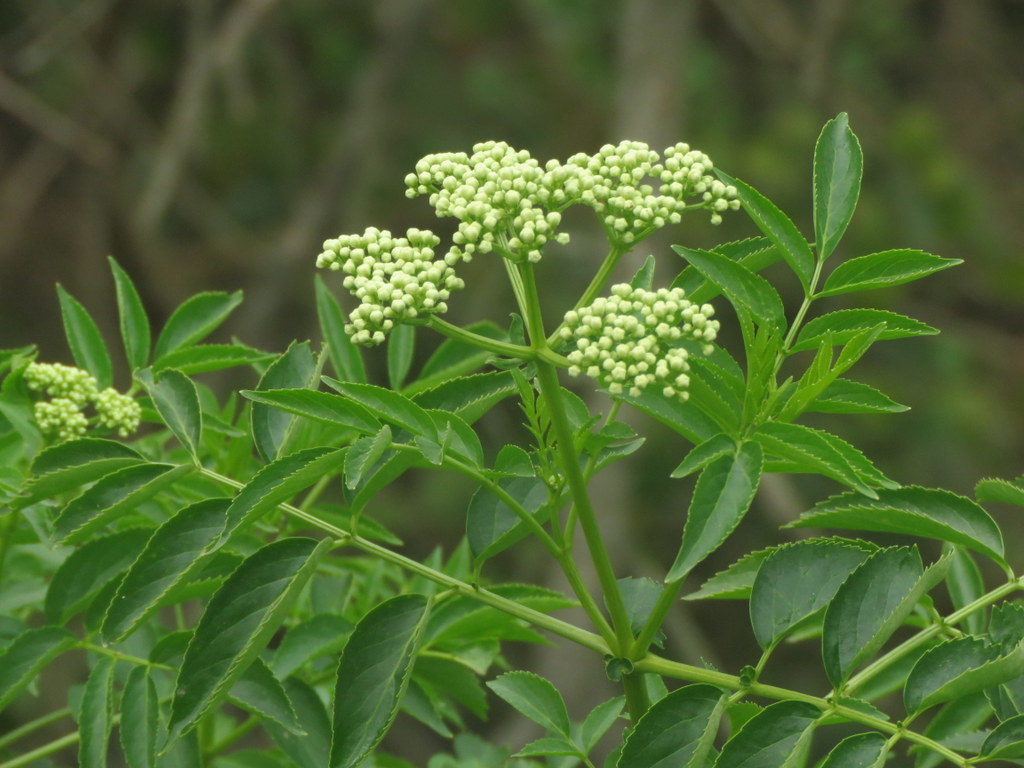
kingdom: Plantae
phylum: Tracheophyta
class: Magnoliopsida
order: Dipsacales
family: Viburnaceae
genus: Sambucus
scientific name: Sambucus australis
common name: Southern elder
